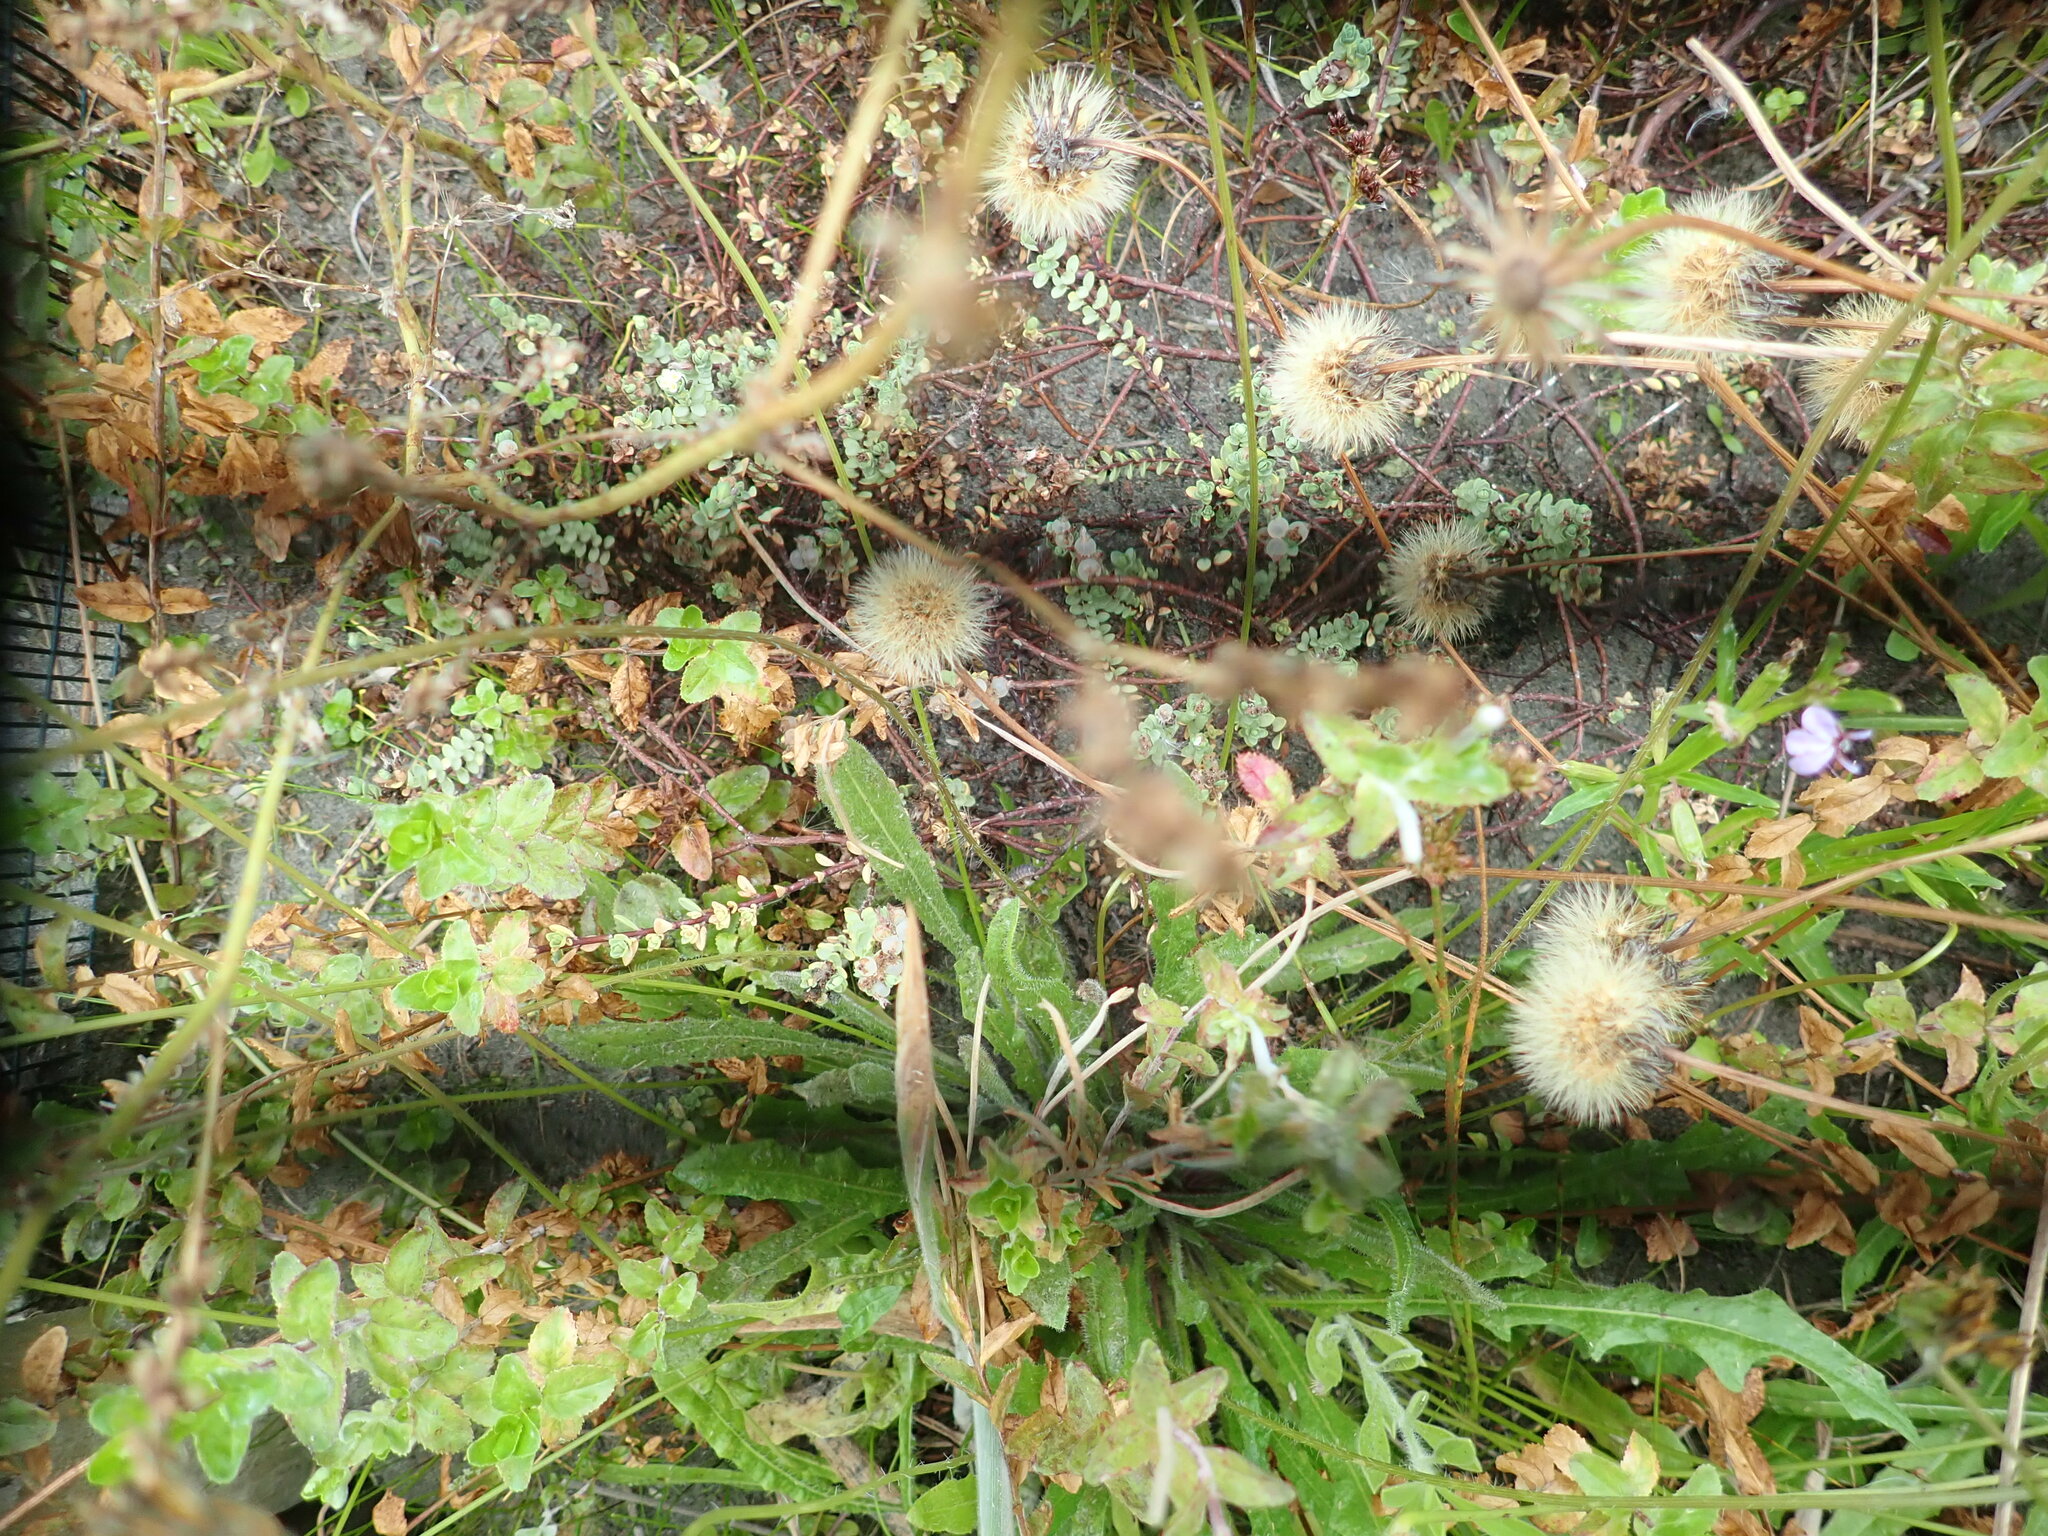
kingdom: Plantae
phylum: Tracheophyta
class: Magnoliopsida
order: Malvales
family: Thymelaeaceae
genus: Pimelea
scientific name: Pimelea actea
